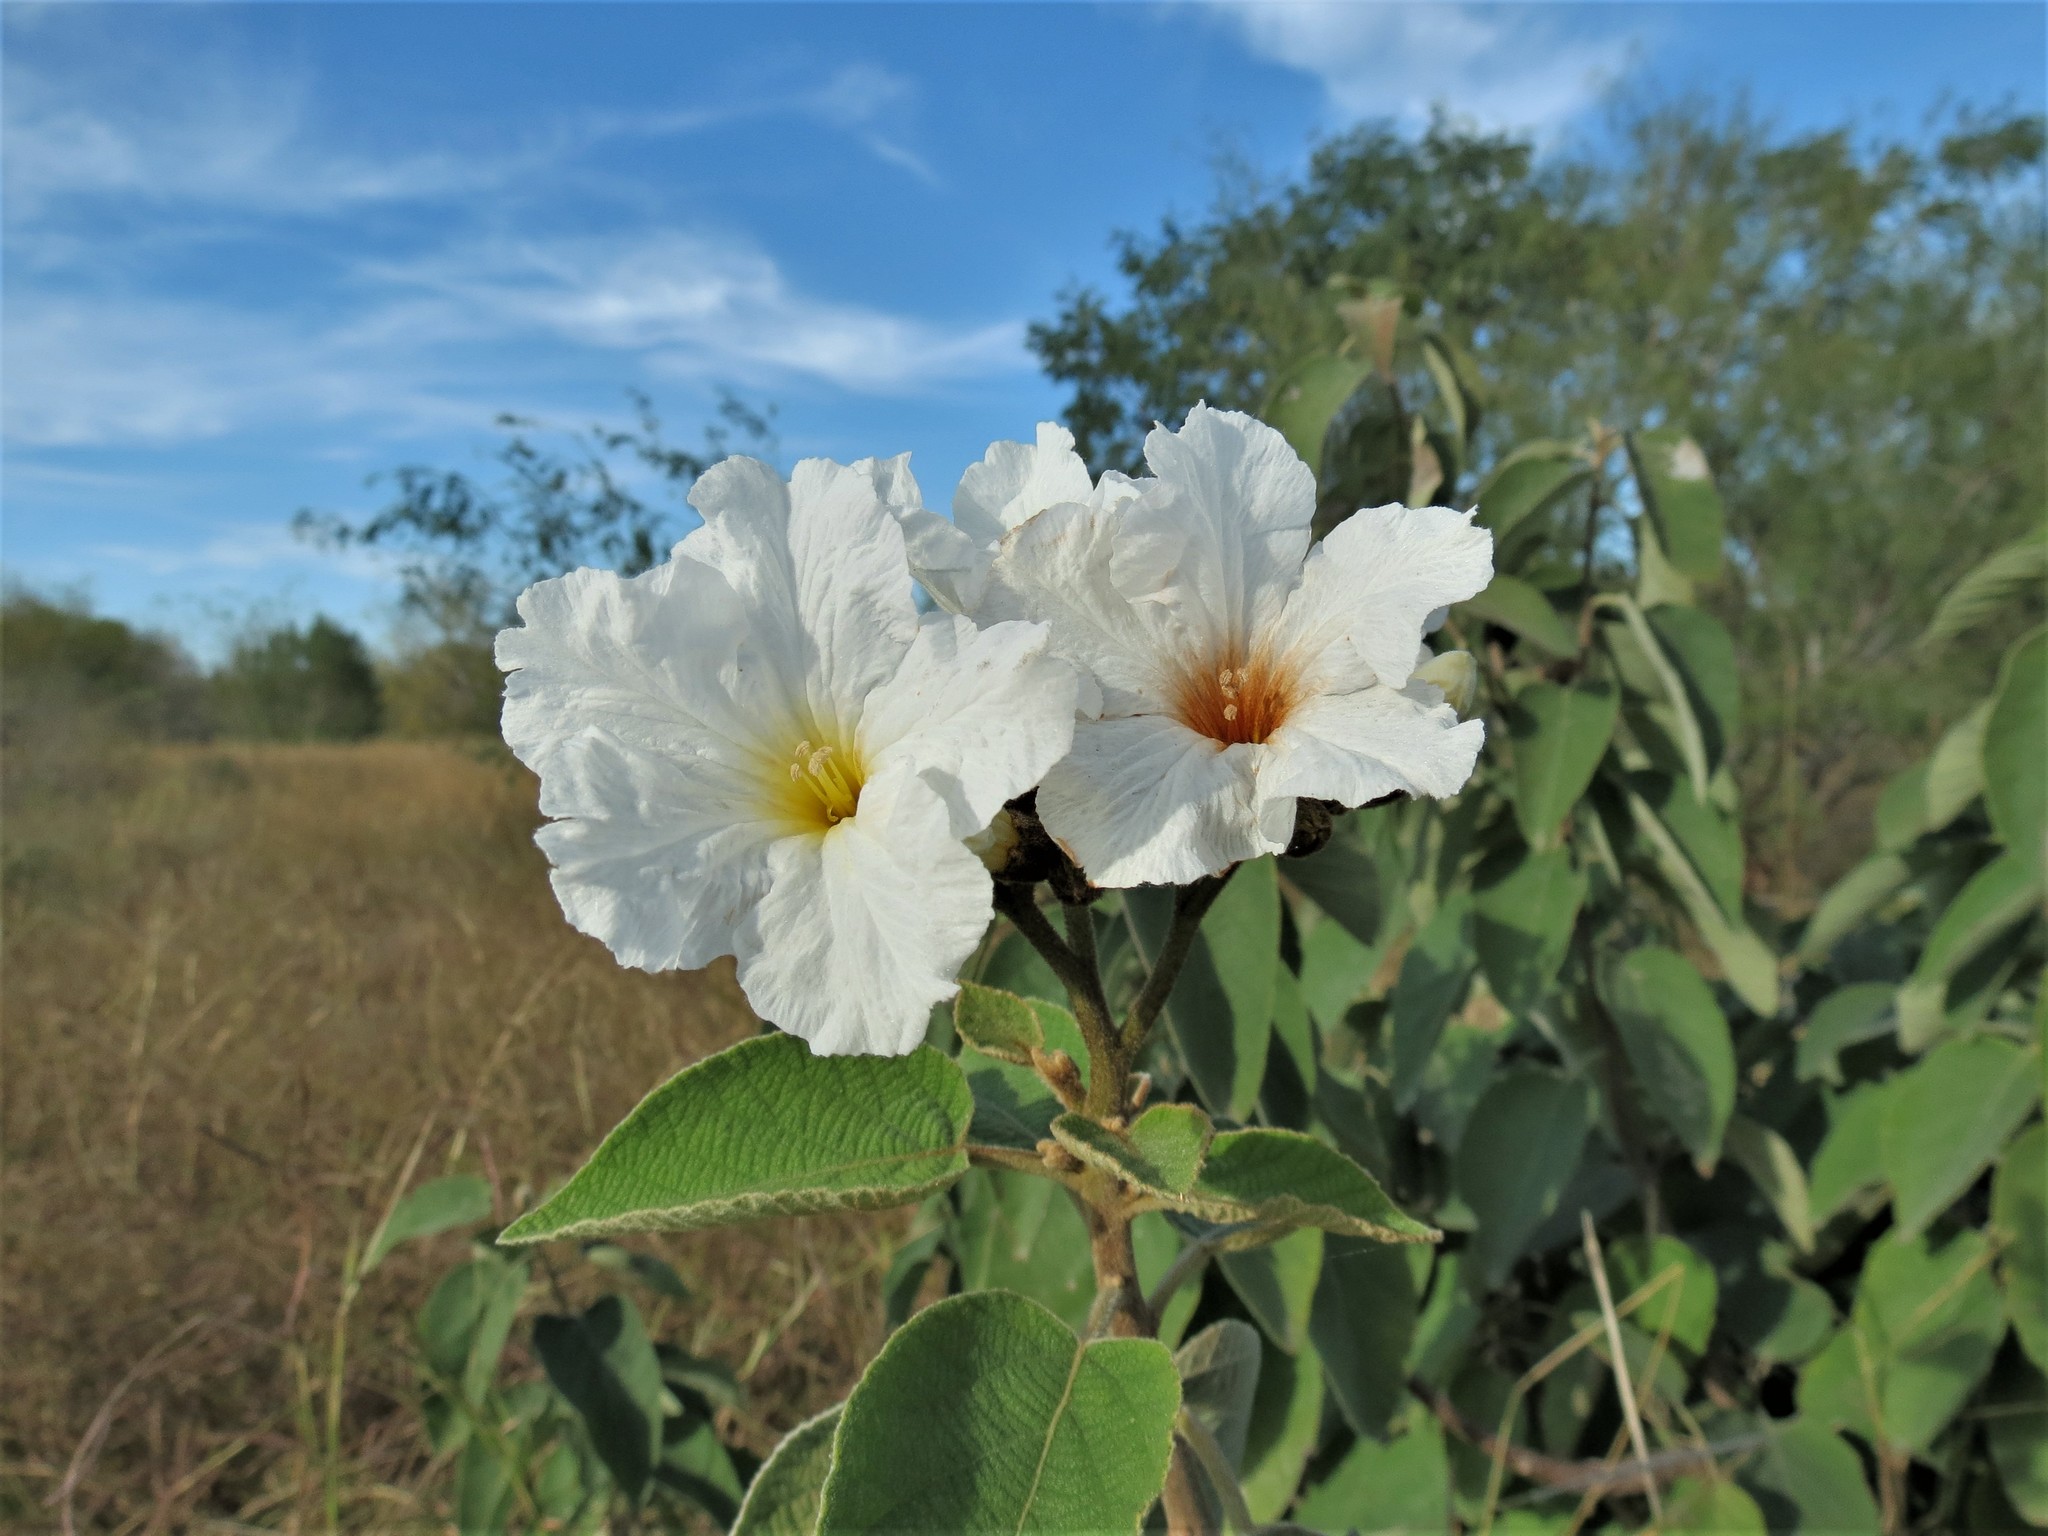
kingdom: Plantae
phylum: Tracheophyta
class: Magnoliopsida
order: Boraginales
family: Cordiaceae
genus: Cordia
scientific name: Cordia boissieri
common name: Mexican-olive
